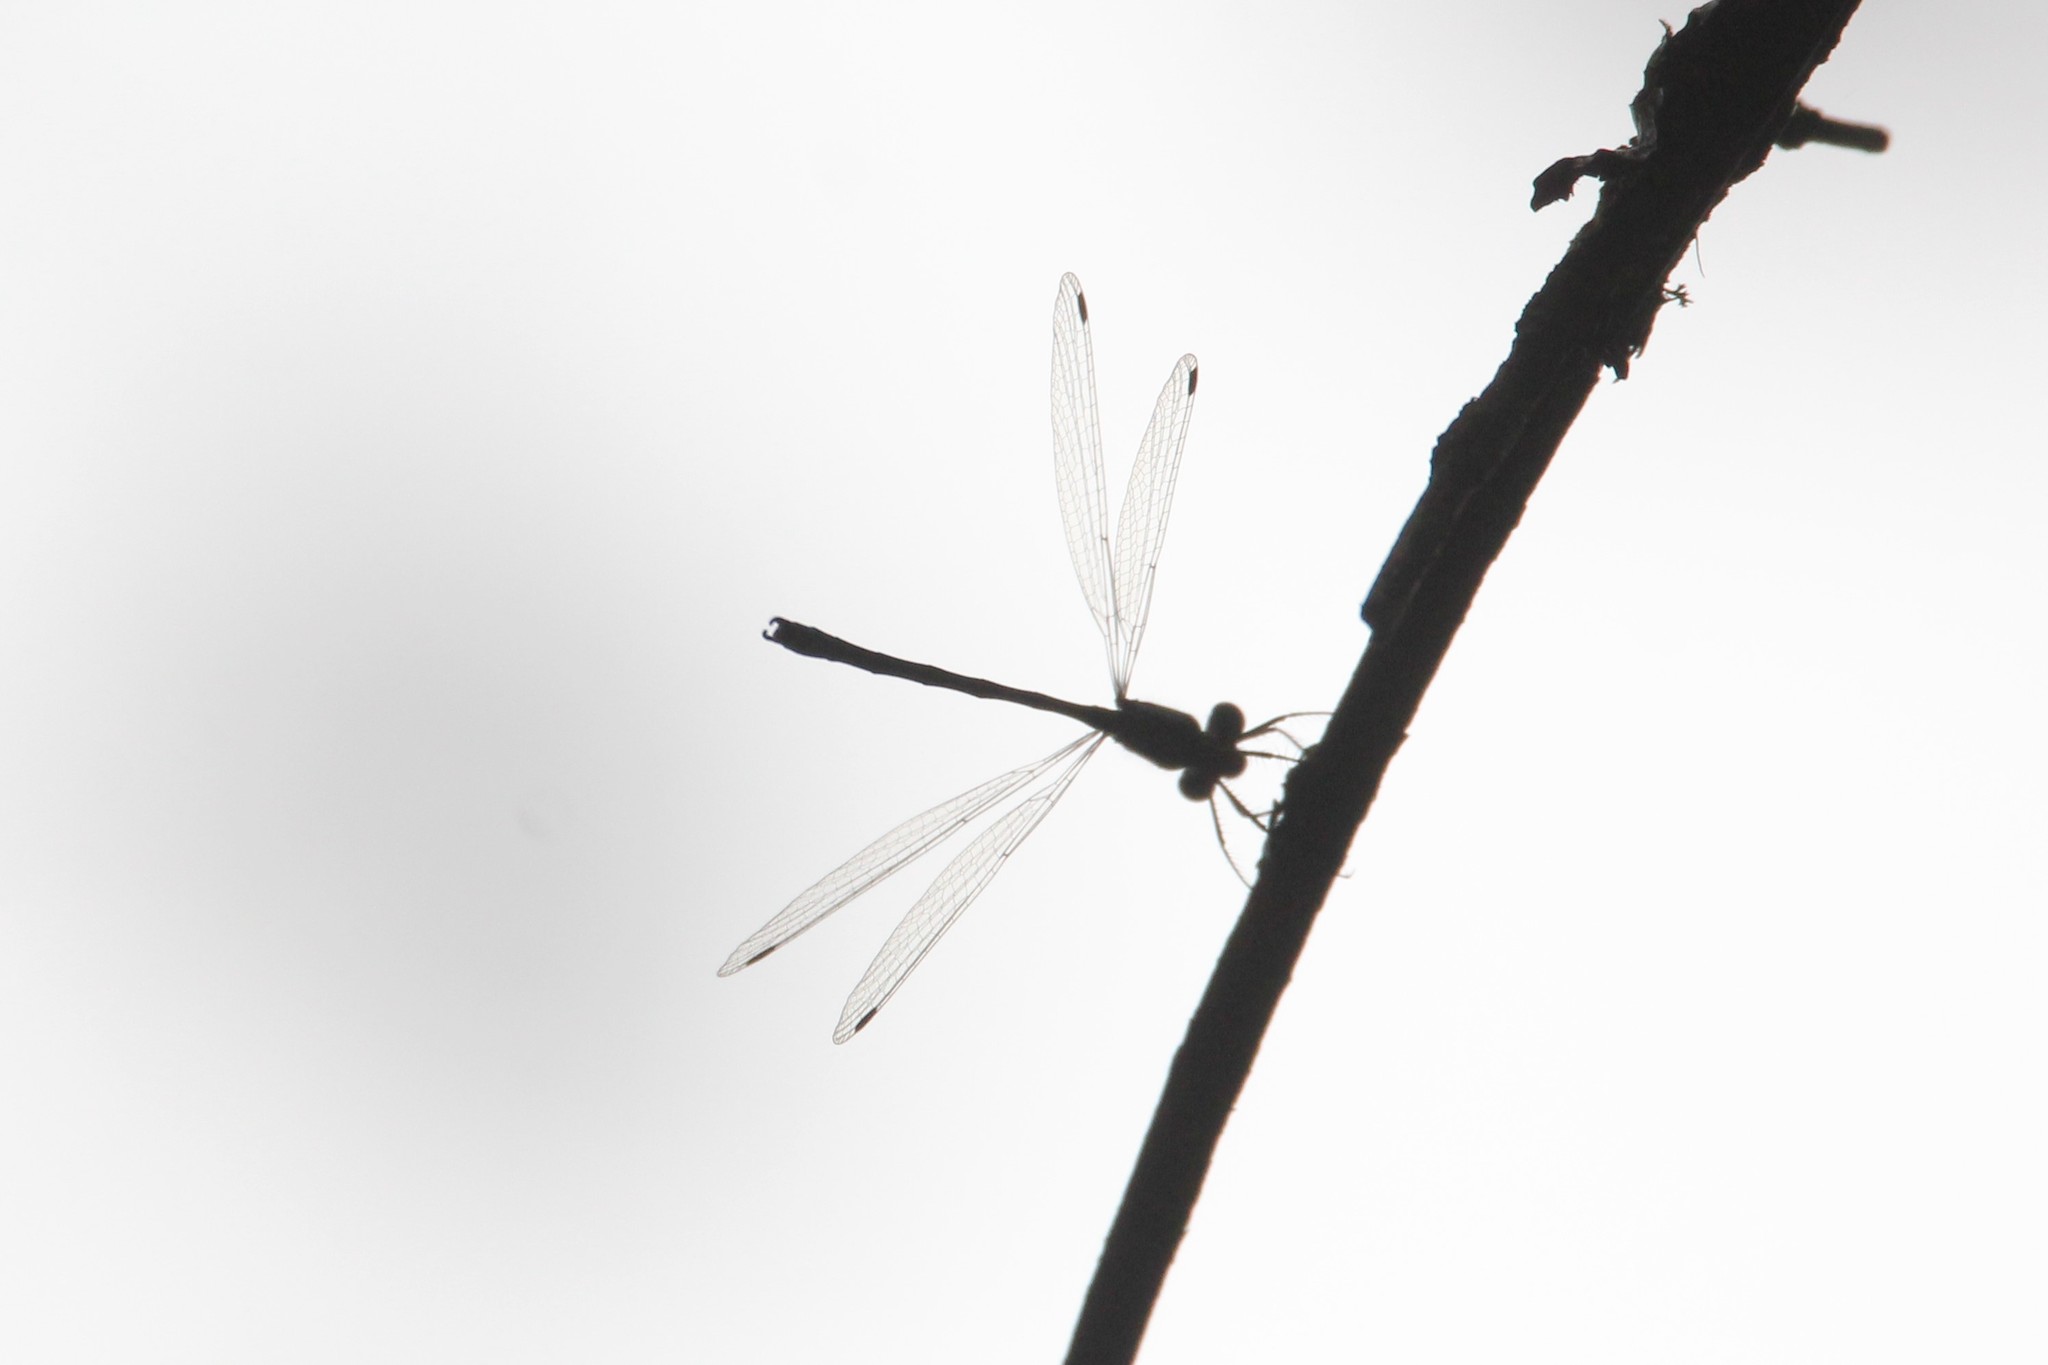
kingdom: Animalia
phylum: Arthropoda
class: Insecta
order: Odonata
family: Lestidae
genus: Lestes
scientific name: Lestes congener
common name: Spotted spreadwing
